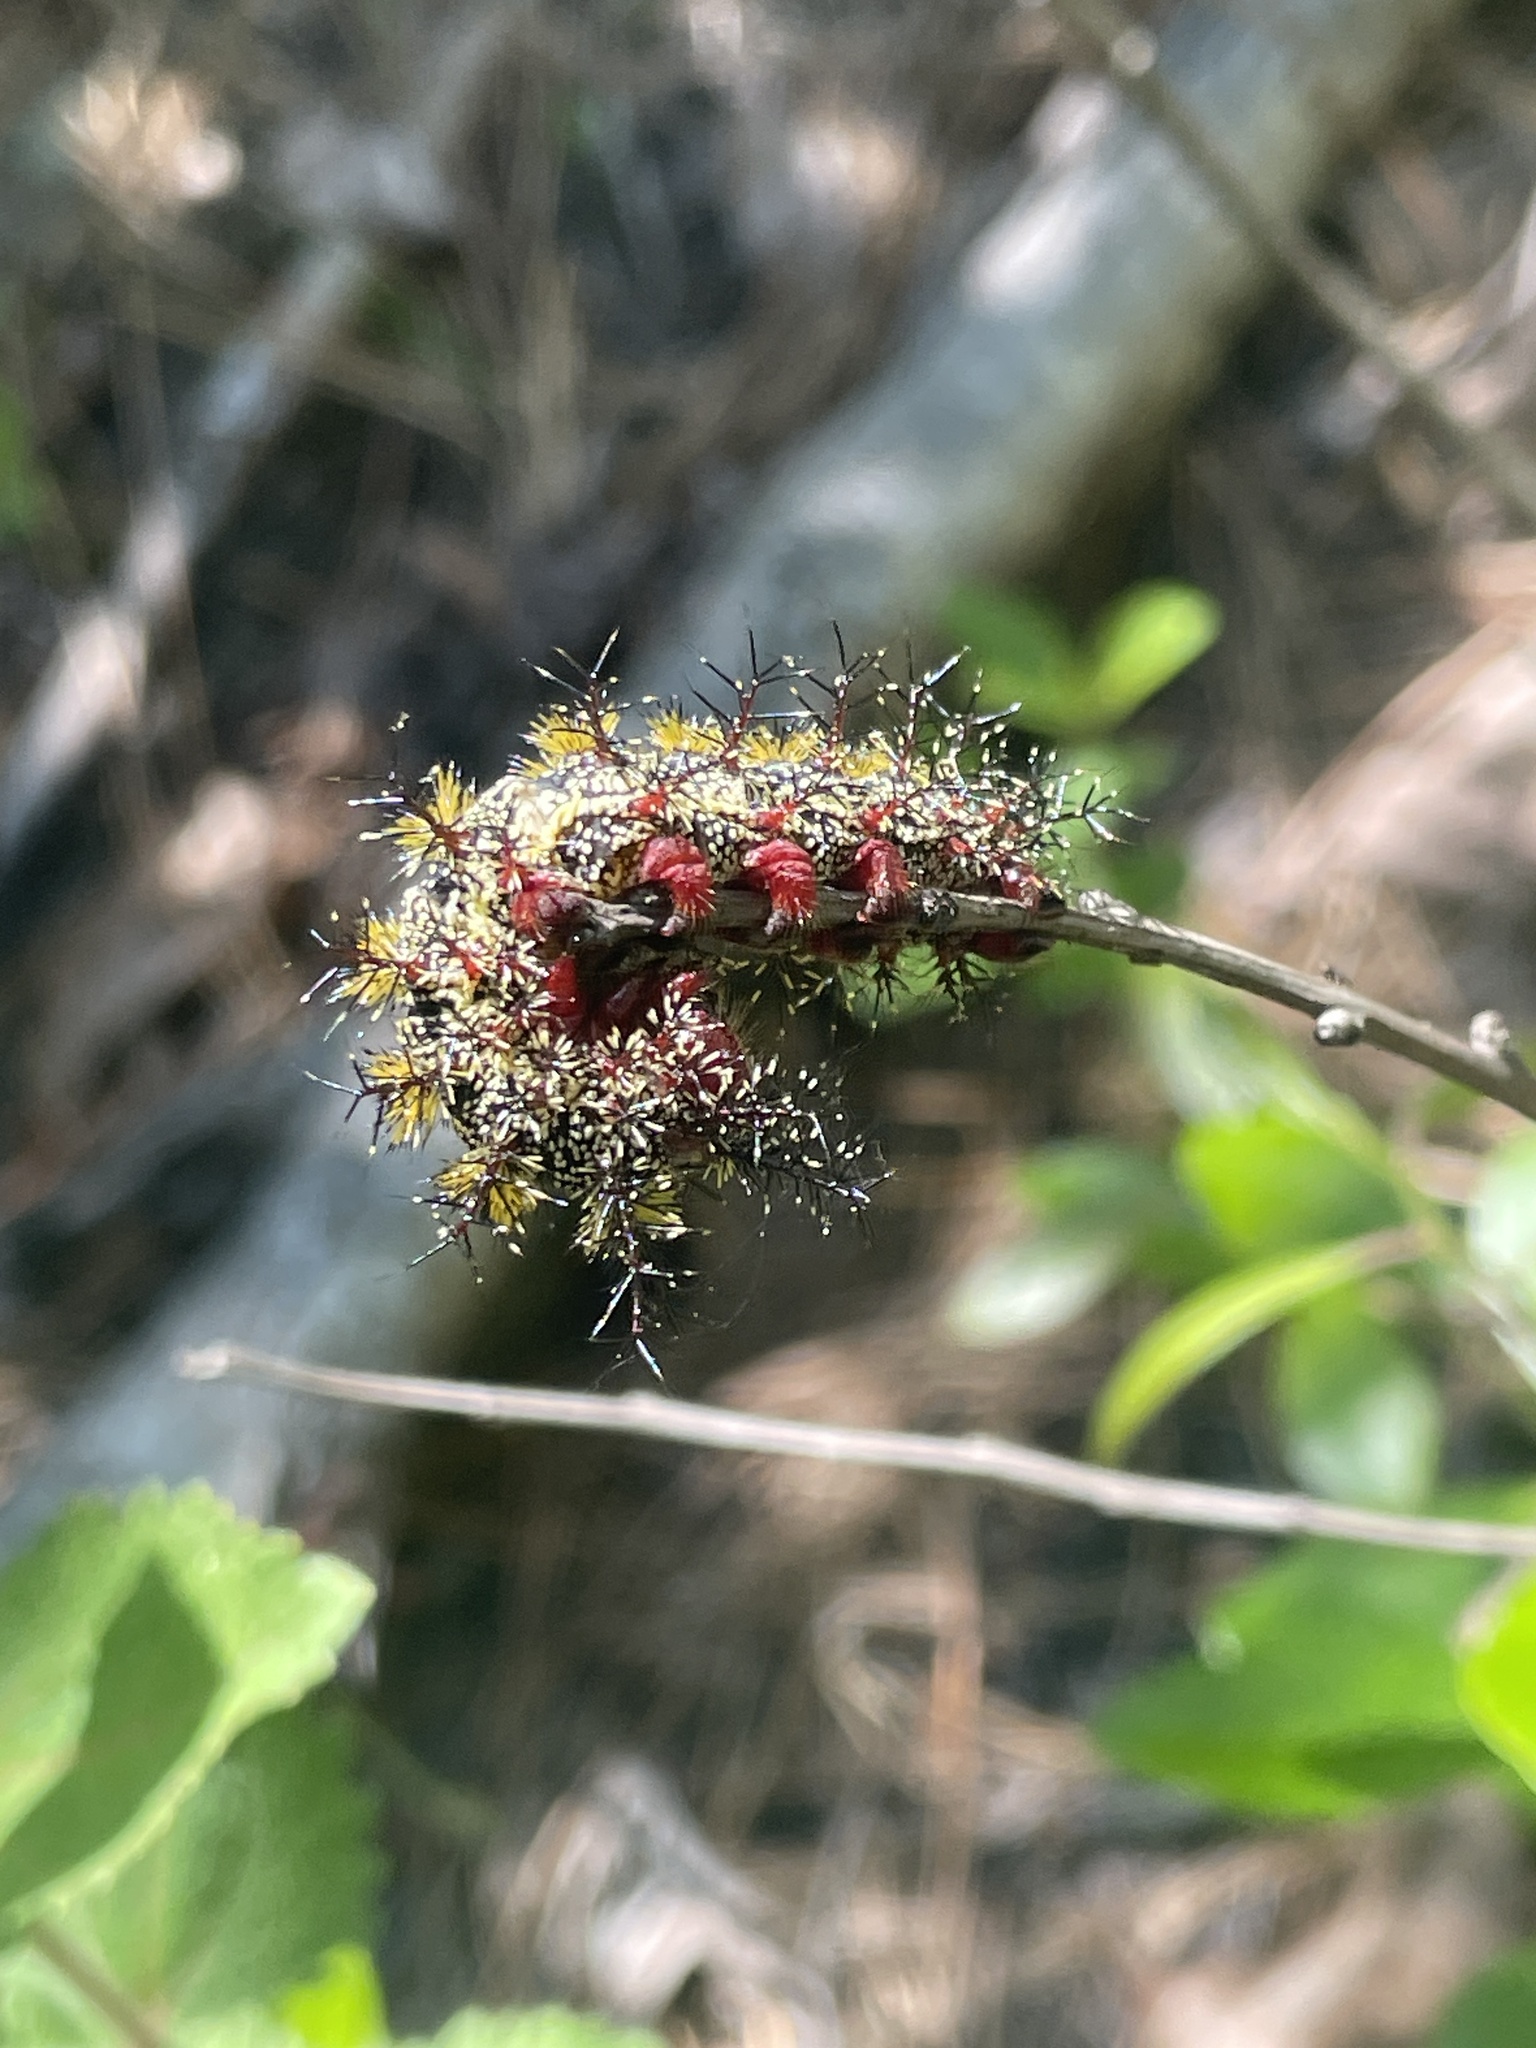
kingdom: Animalia
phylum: Arthropoda
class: Insecta
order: Lepidoptera
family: Saturniidae
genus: Hemileuca
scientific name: Hemileuca maia
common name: Eastern buckmoth
